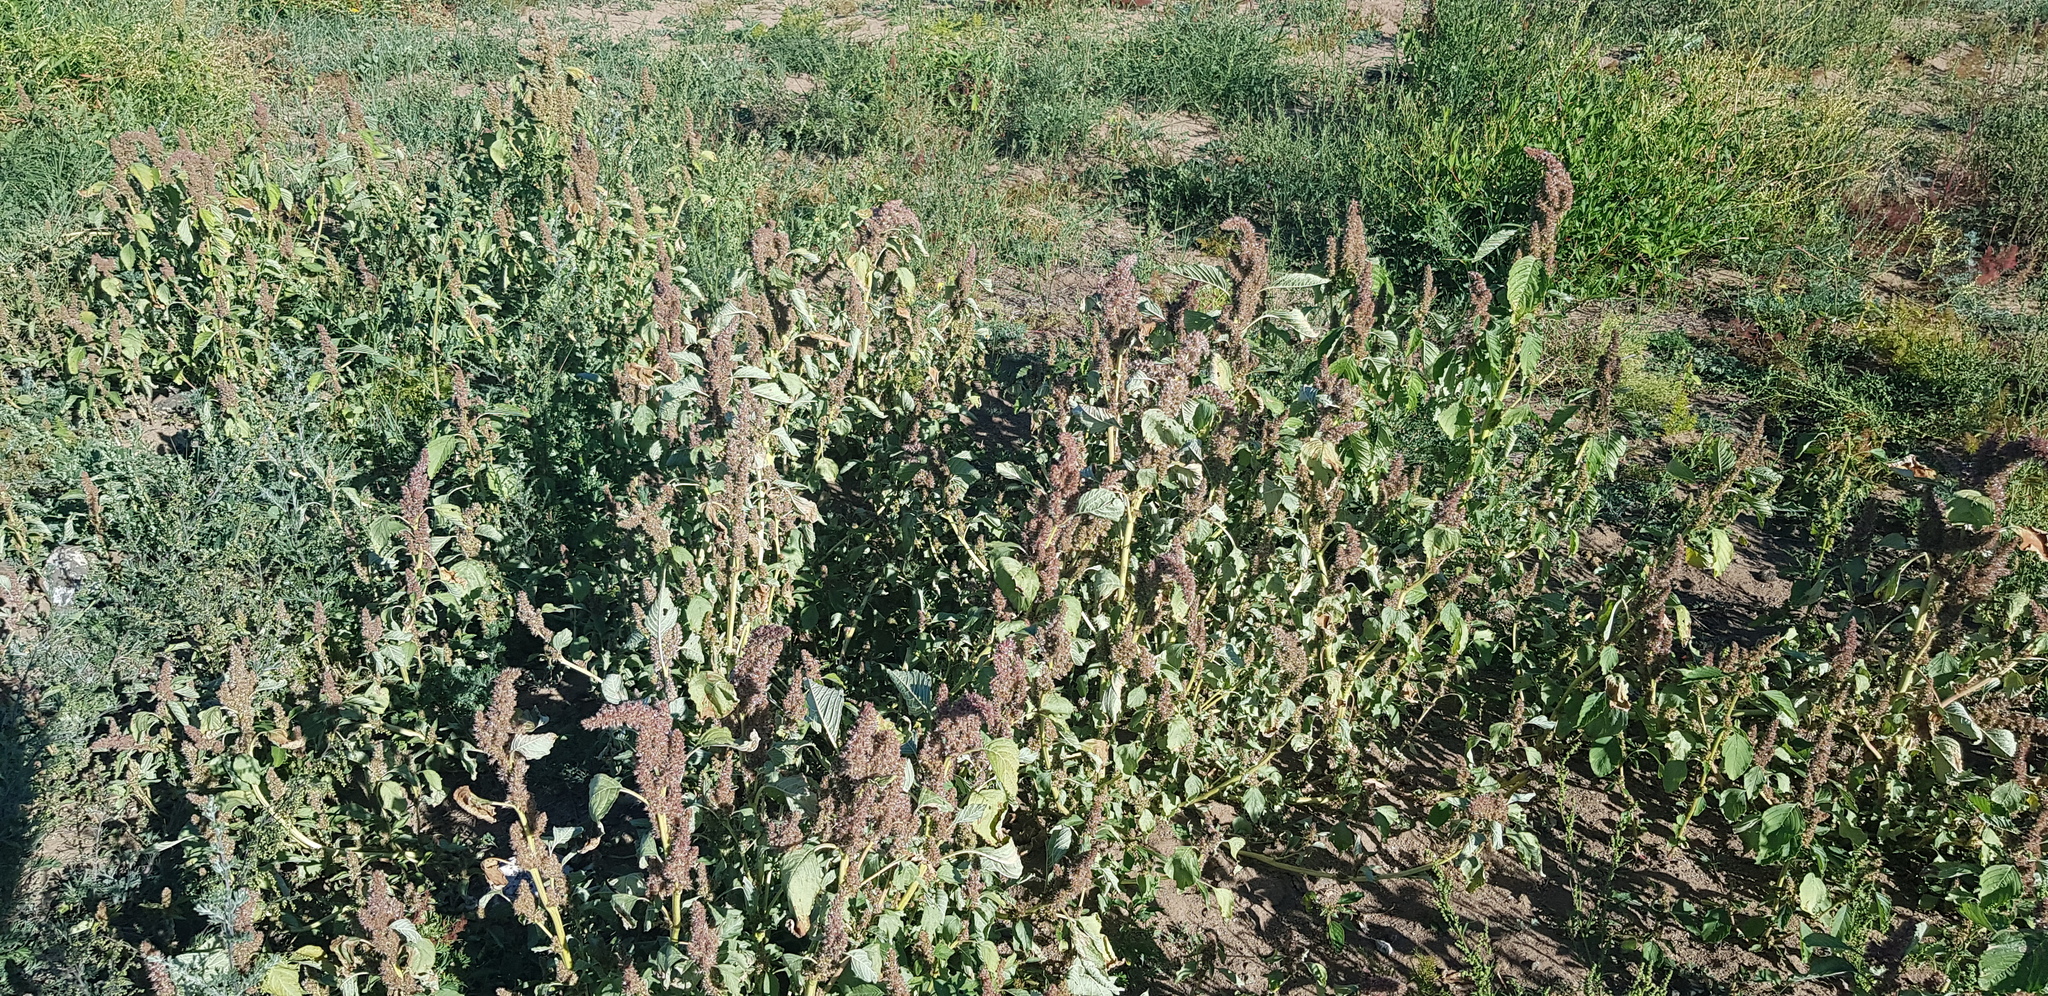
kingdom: Plantae
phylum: Tracheophyta
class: Magnoliopsida
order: Caryophyllales
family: Amaranthaceae
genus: Amaranthus
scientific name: Amaranthus retroflexus
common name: Redroot amaranth
